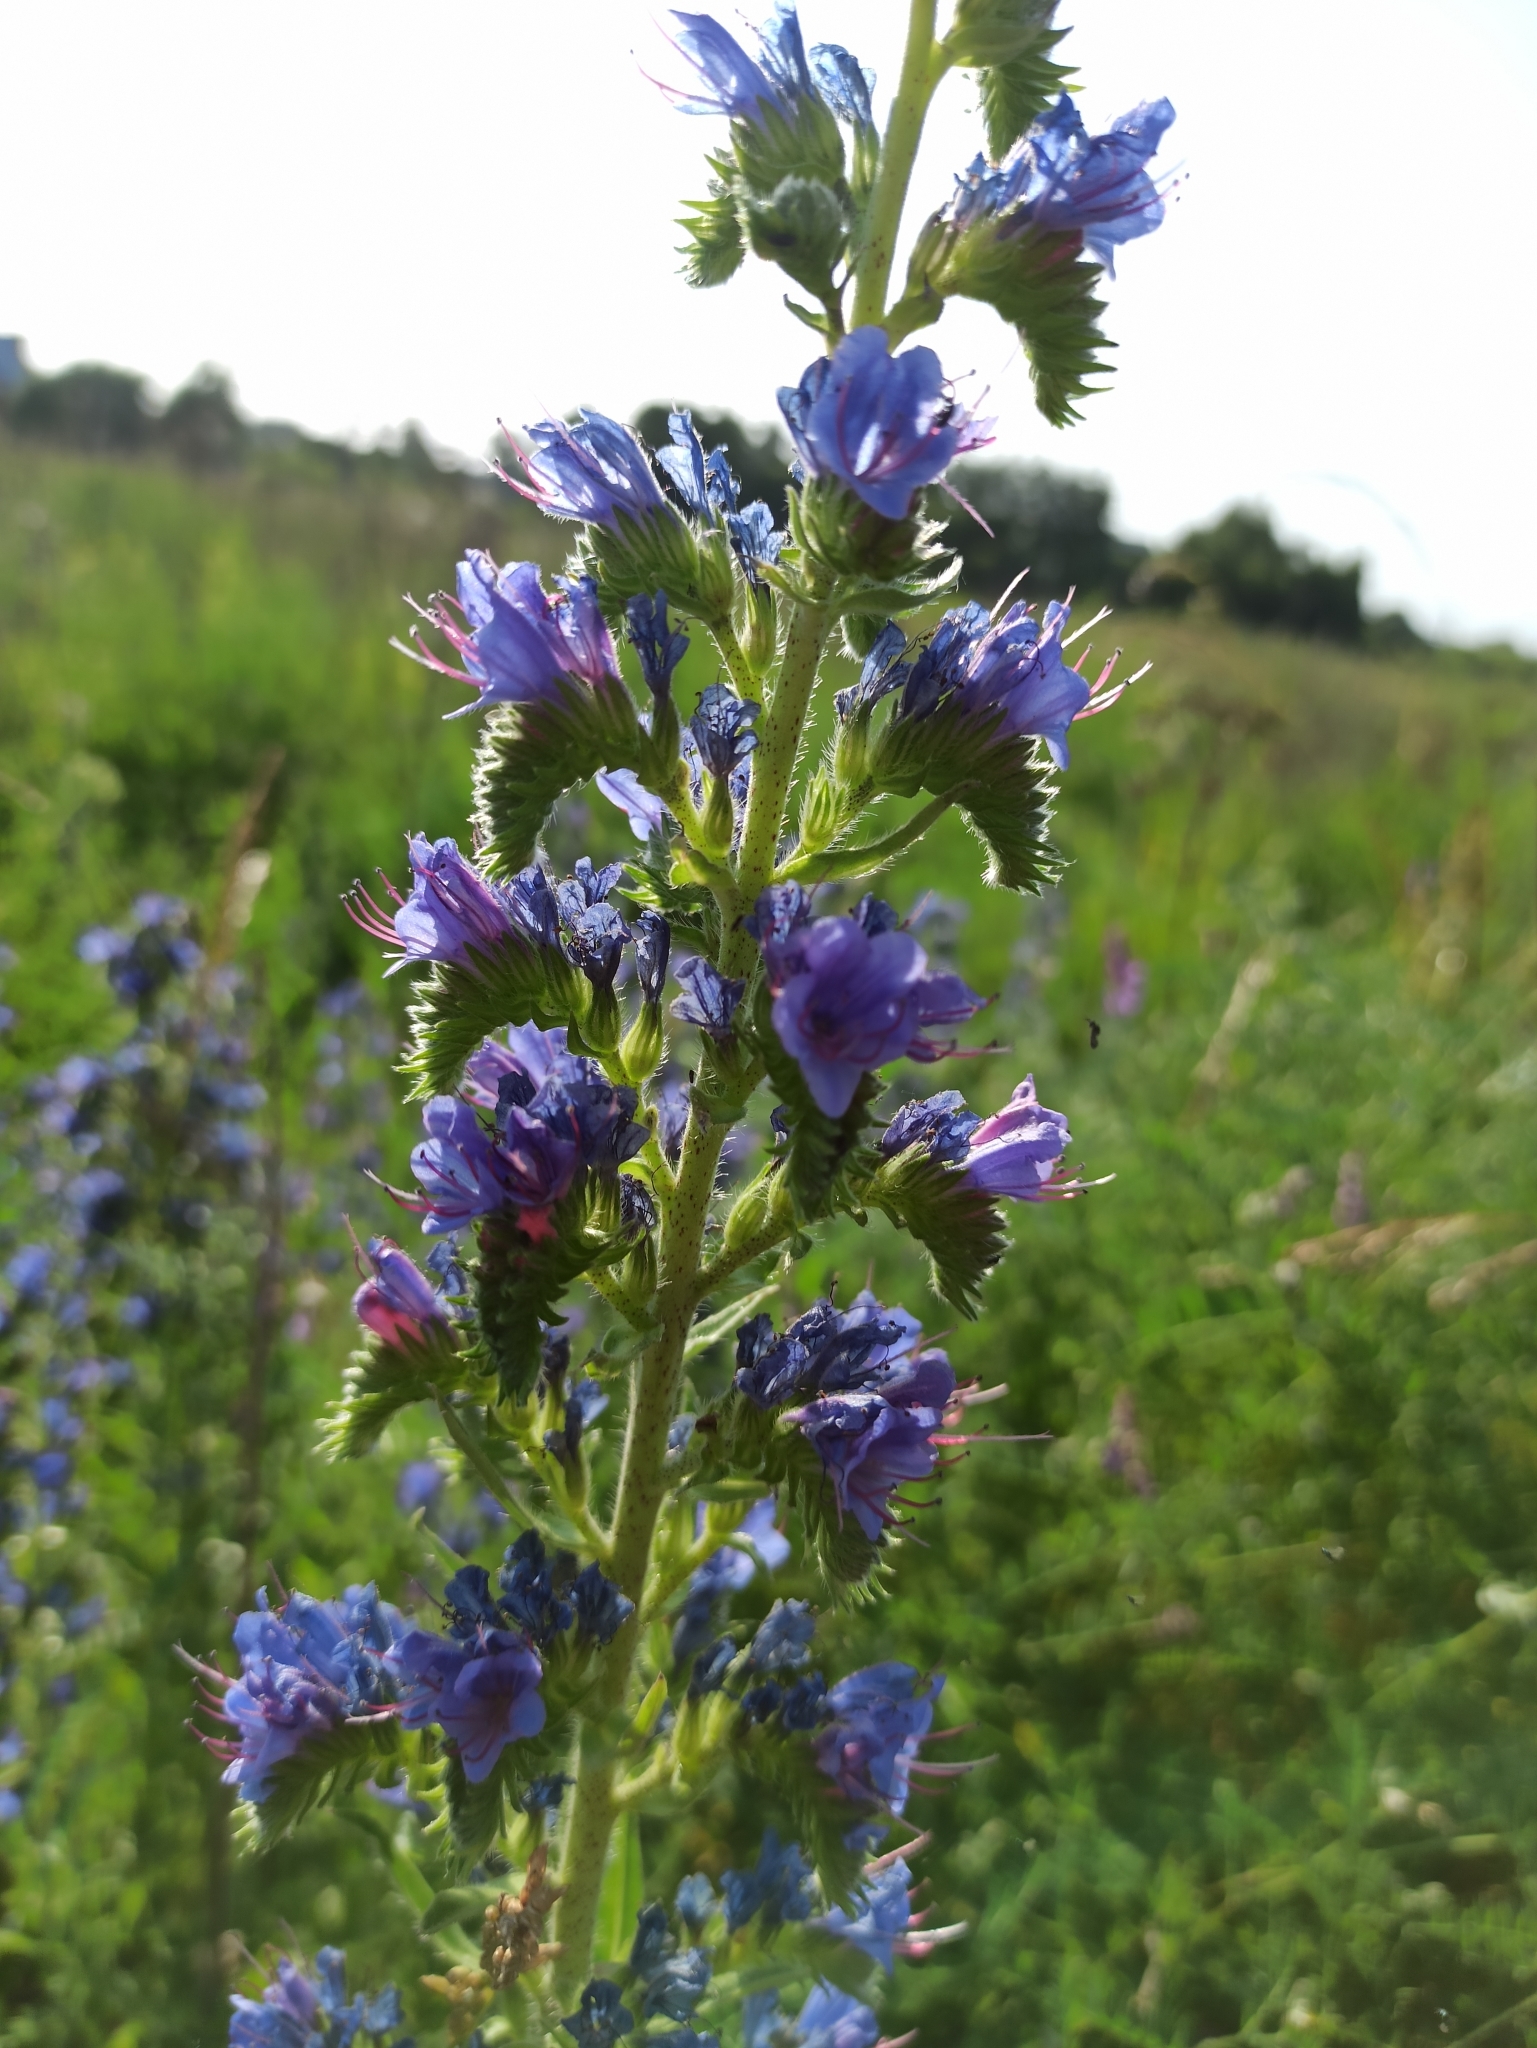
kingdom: Plantae
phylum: Tracheophyta
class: Magnoliopsida
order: Boraginales
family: Boraginaceae
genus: Echium
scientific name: Echium vulgare
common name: Common viper's bugloss
